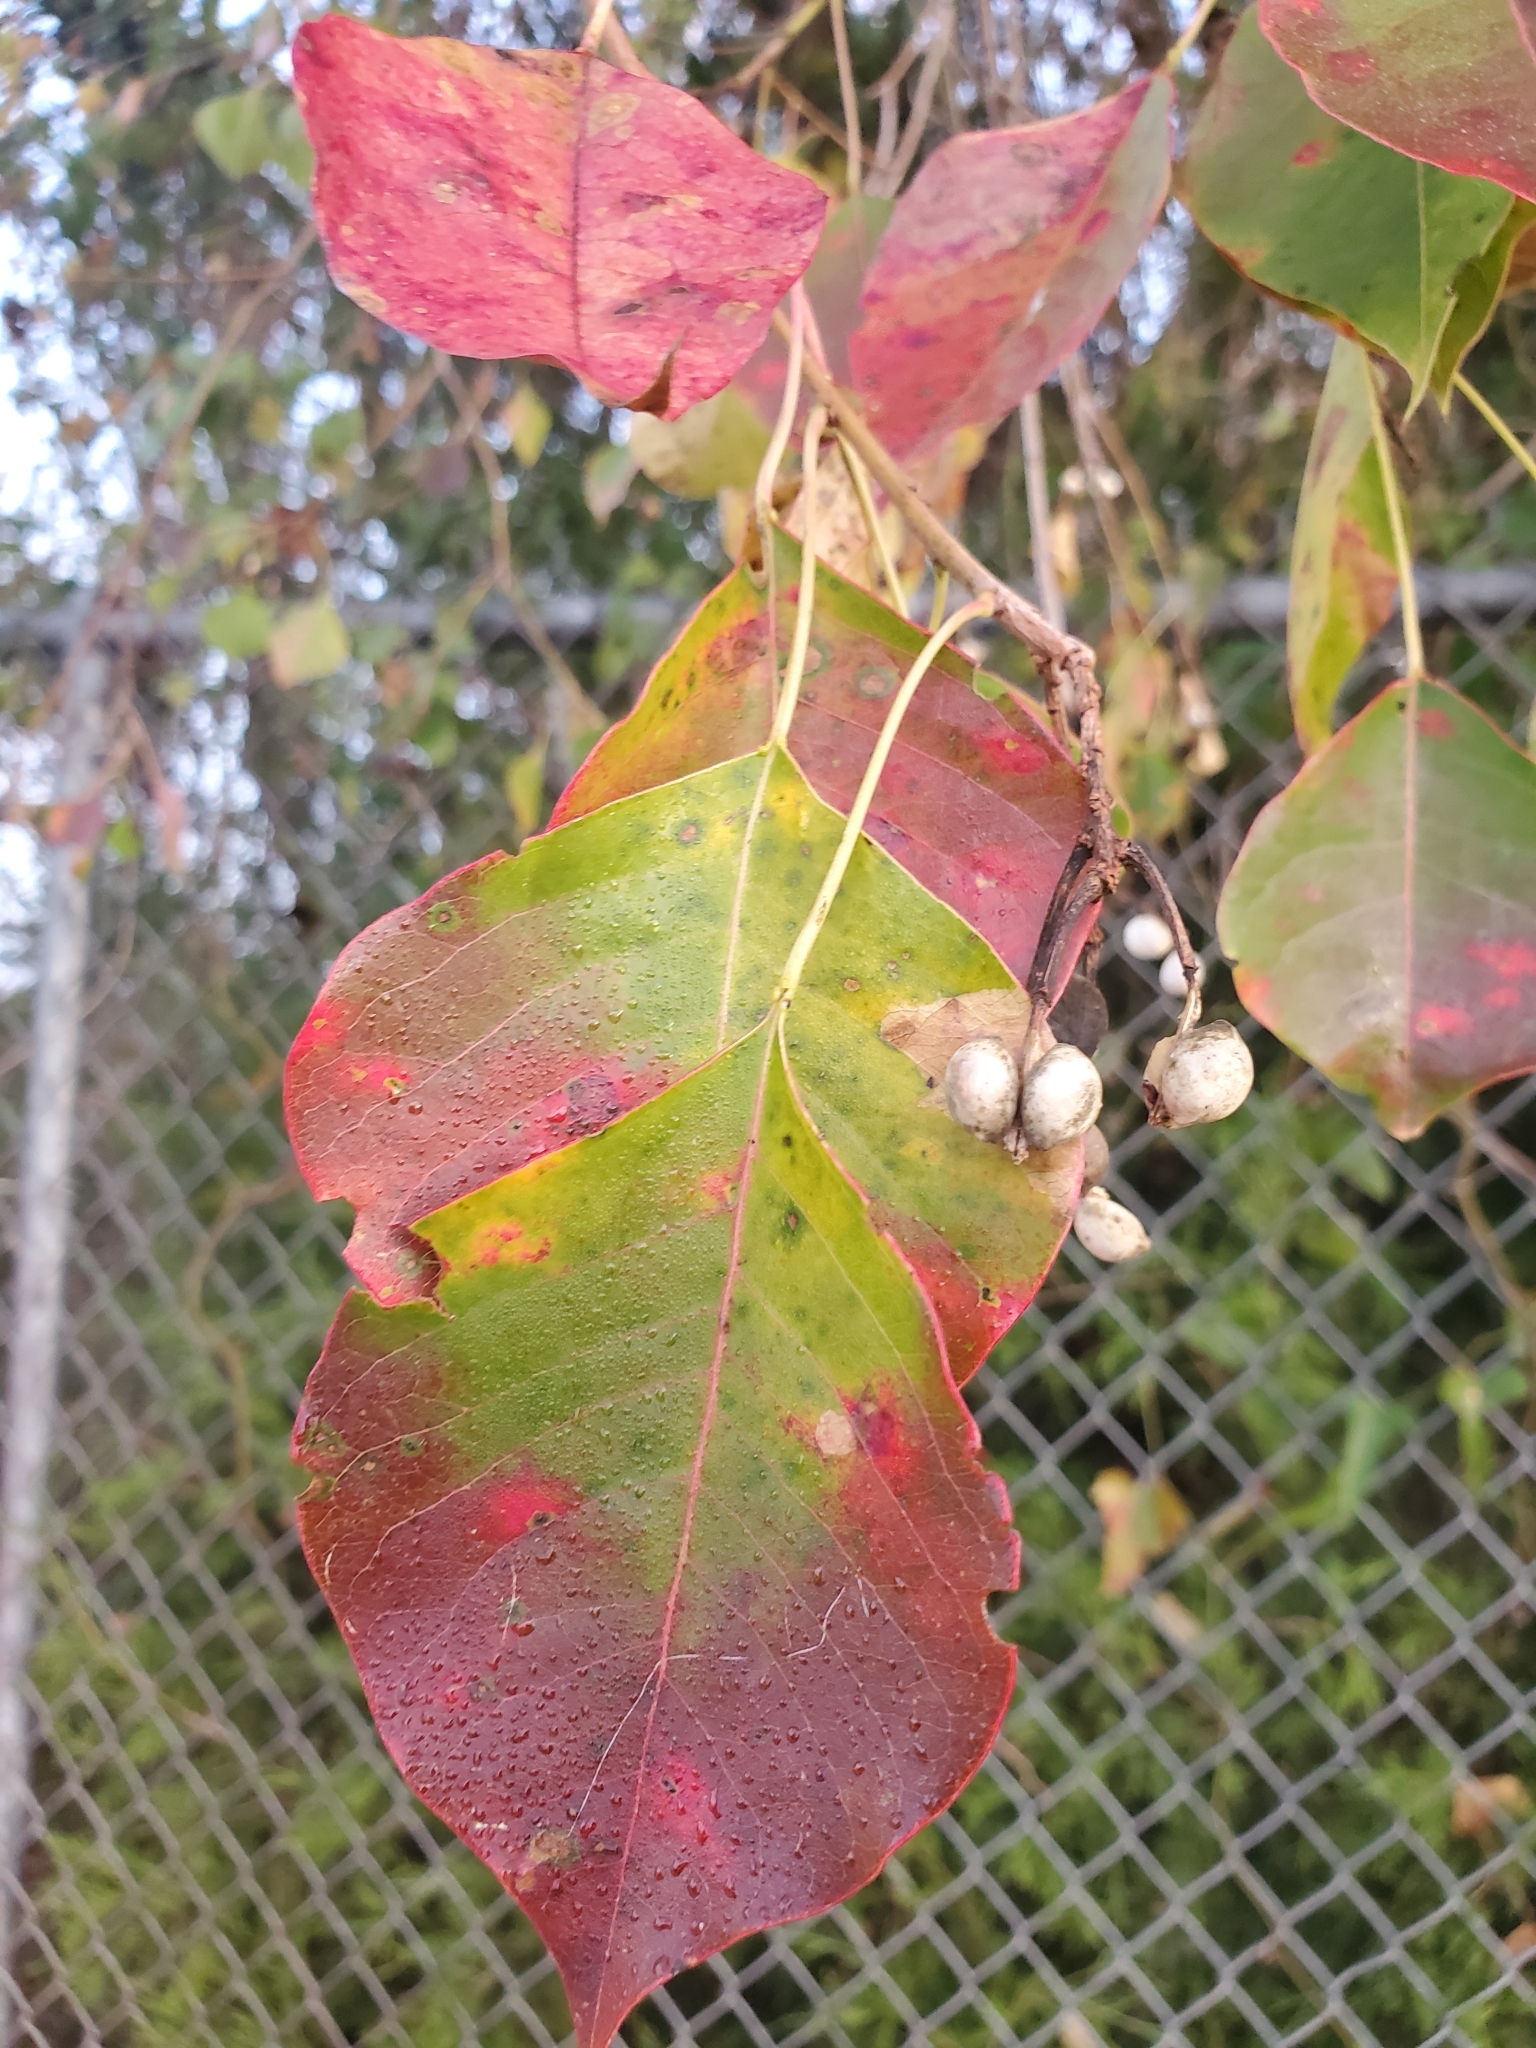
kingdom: Plantae
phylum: Tracheophyta
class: Magnoliopsida
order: Malpighiales
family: Euphorbiaceae
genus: Triadica
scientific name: Triadica sebifera
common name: Chinese tallow
